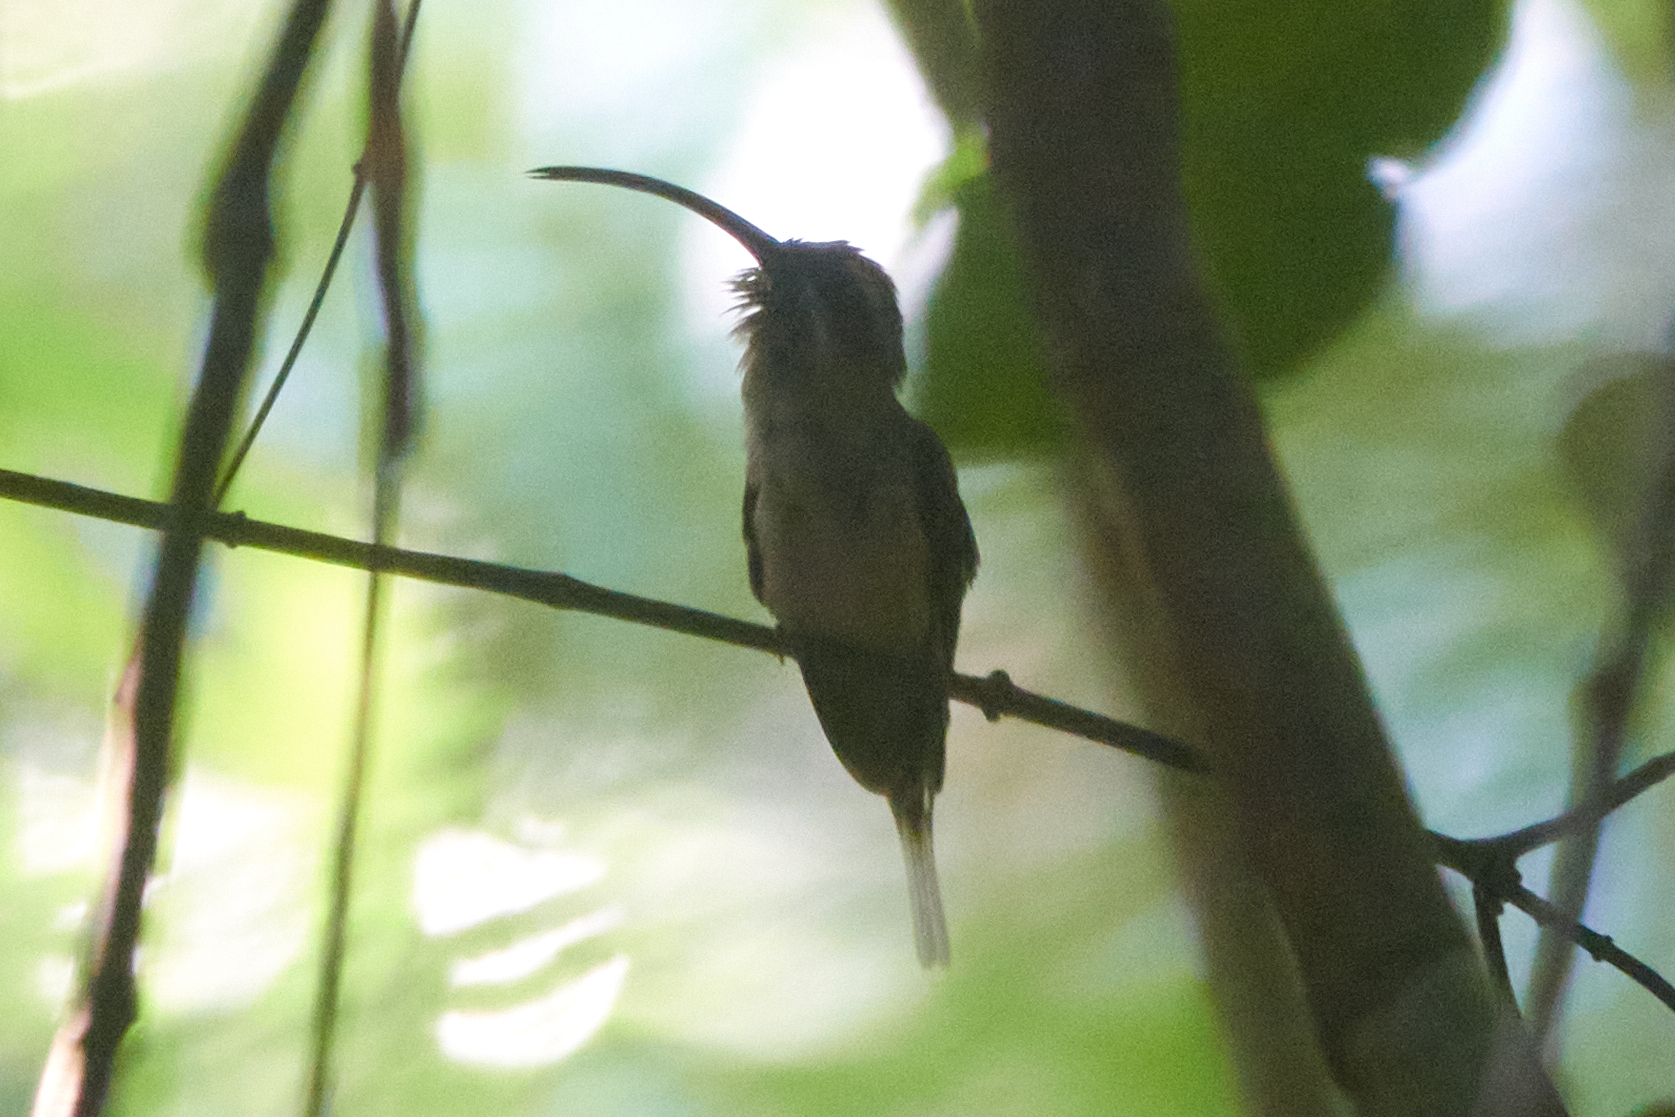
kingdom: Animalia
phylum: Chordata
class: Aves
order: Apodiformes
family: Trochilidae
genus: Phaethornis
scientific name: Phaethornis longirostris
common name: Long-billed hermit
